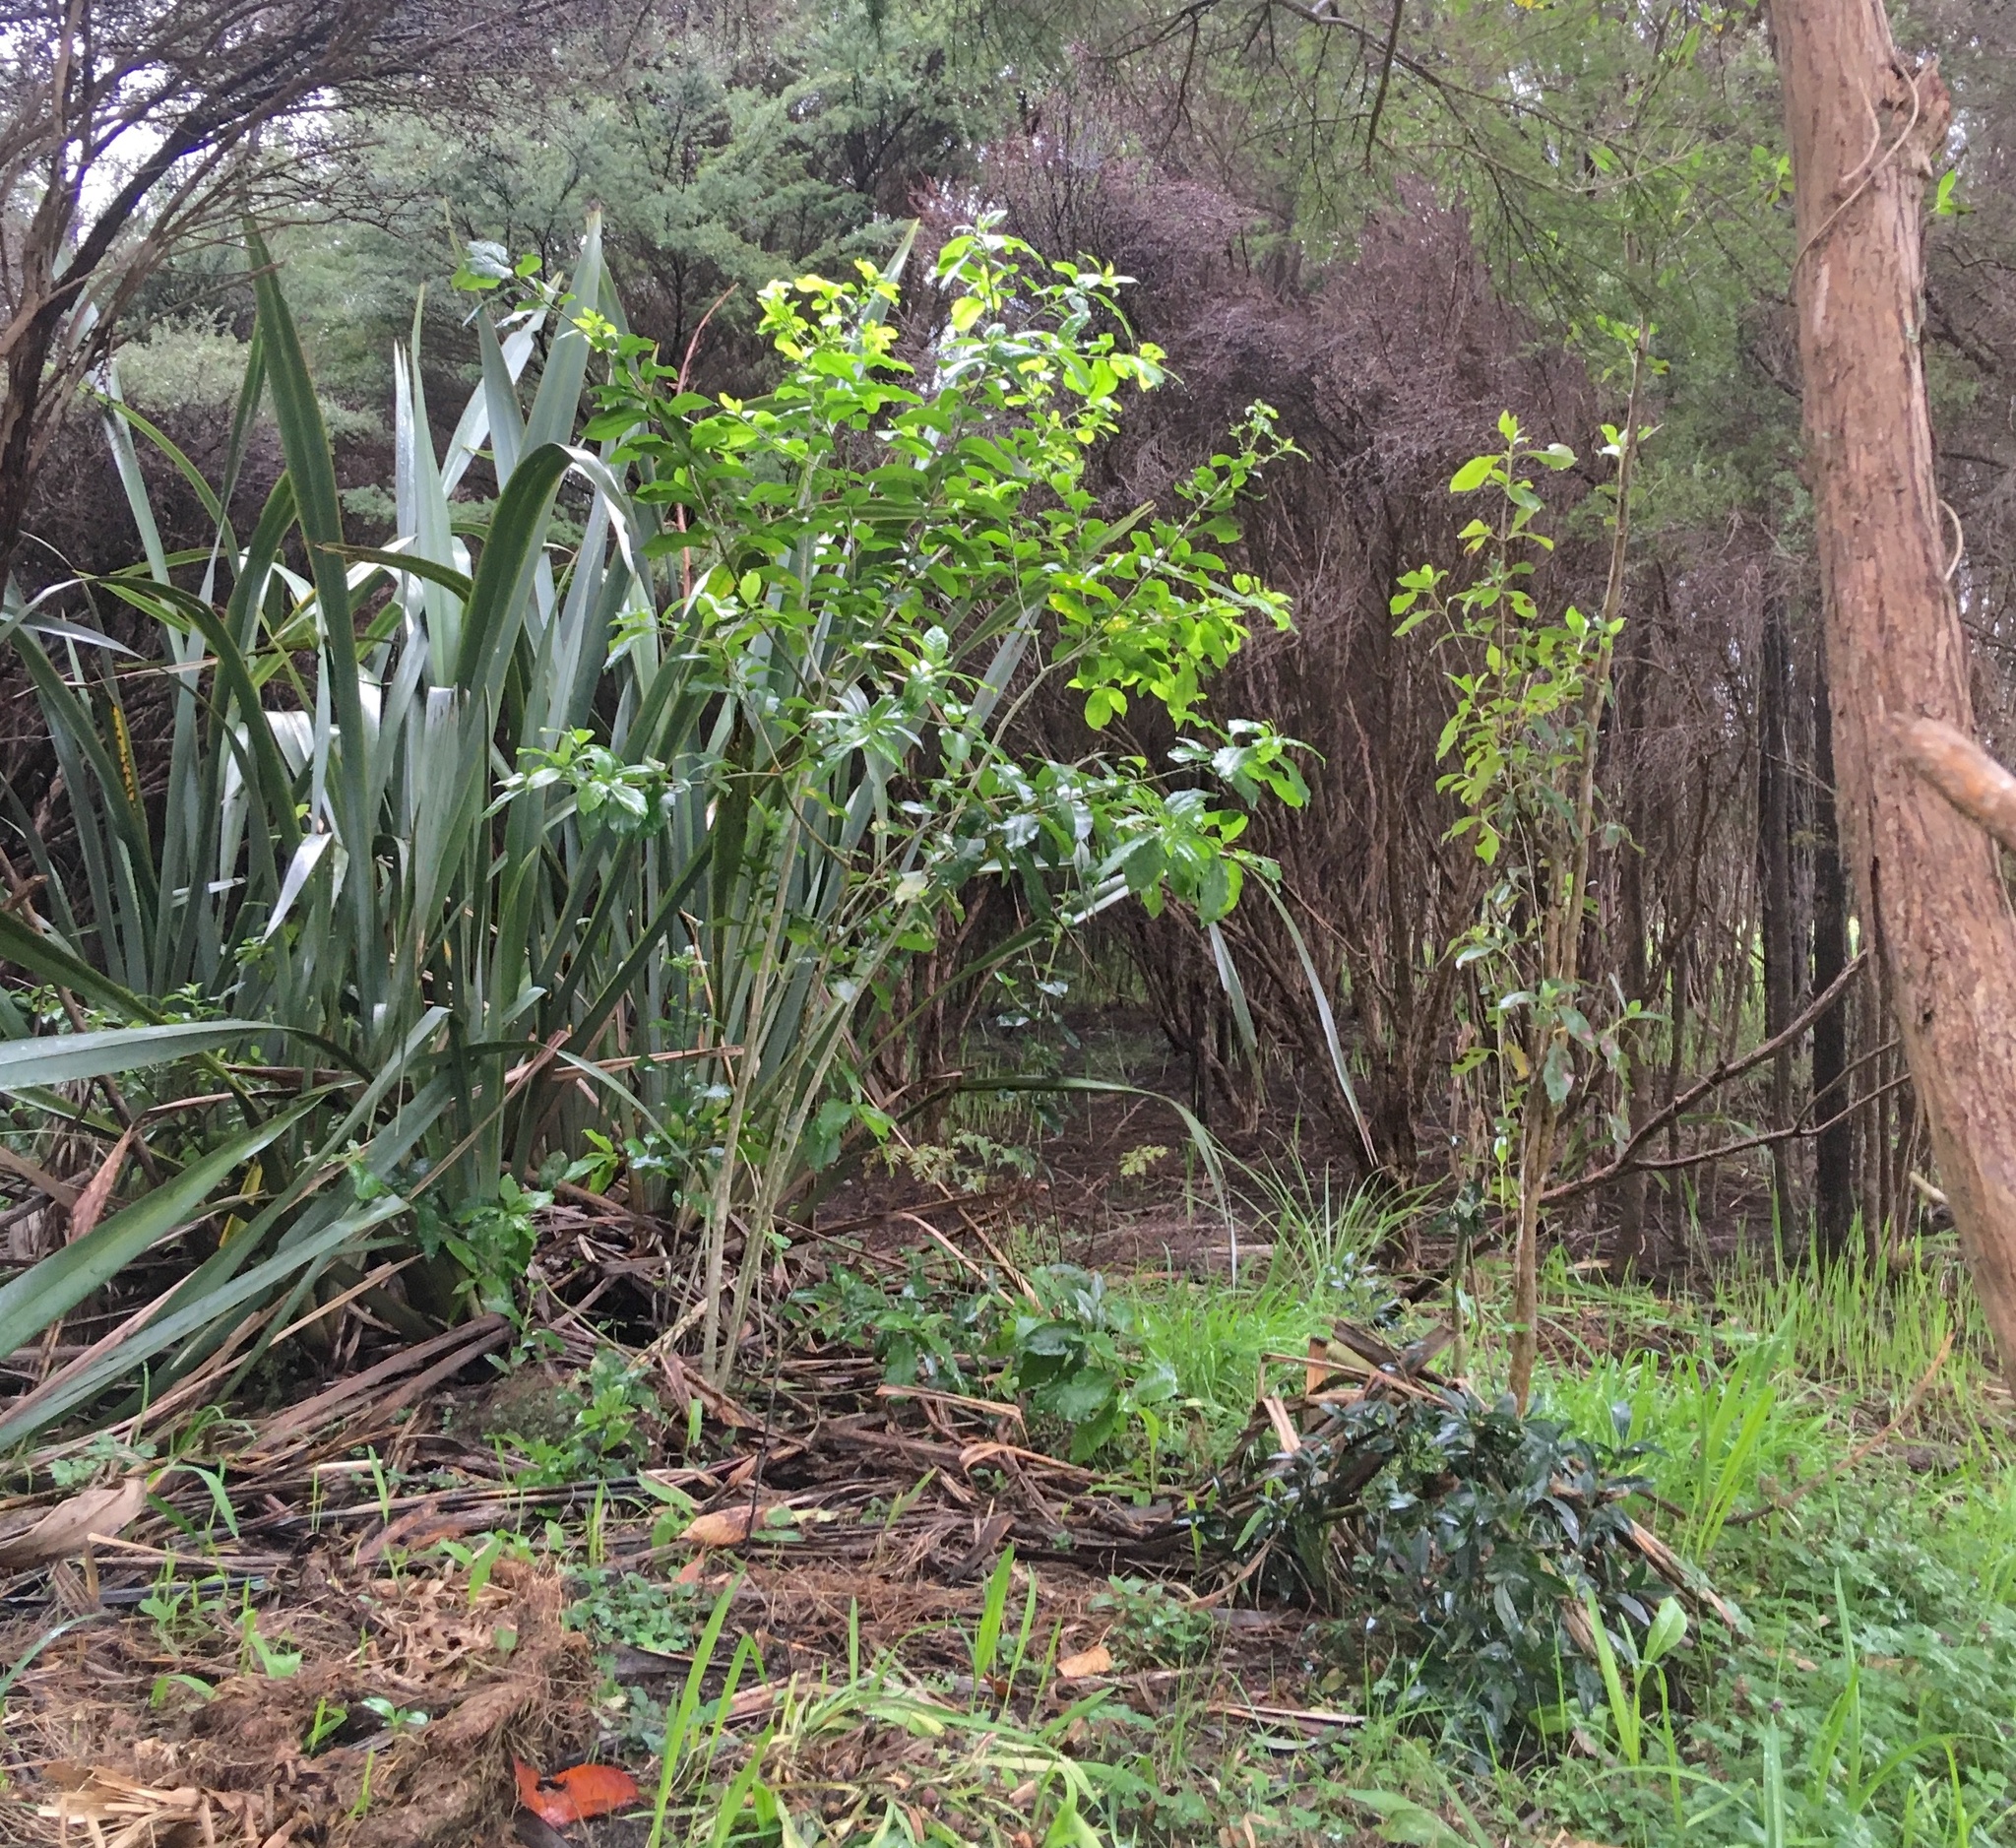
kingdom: Plantae
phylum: Tracheophyta
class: Magnoliopsida
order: Malpighiales
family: Violaceae
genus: Melicytus
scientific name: Melicytus ramiflorus
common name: Mahoe
